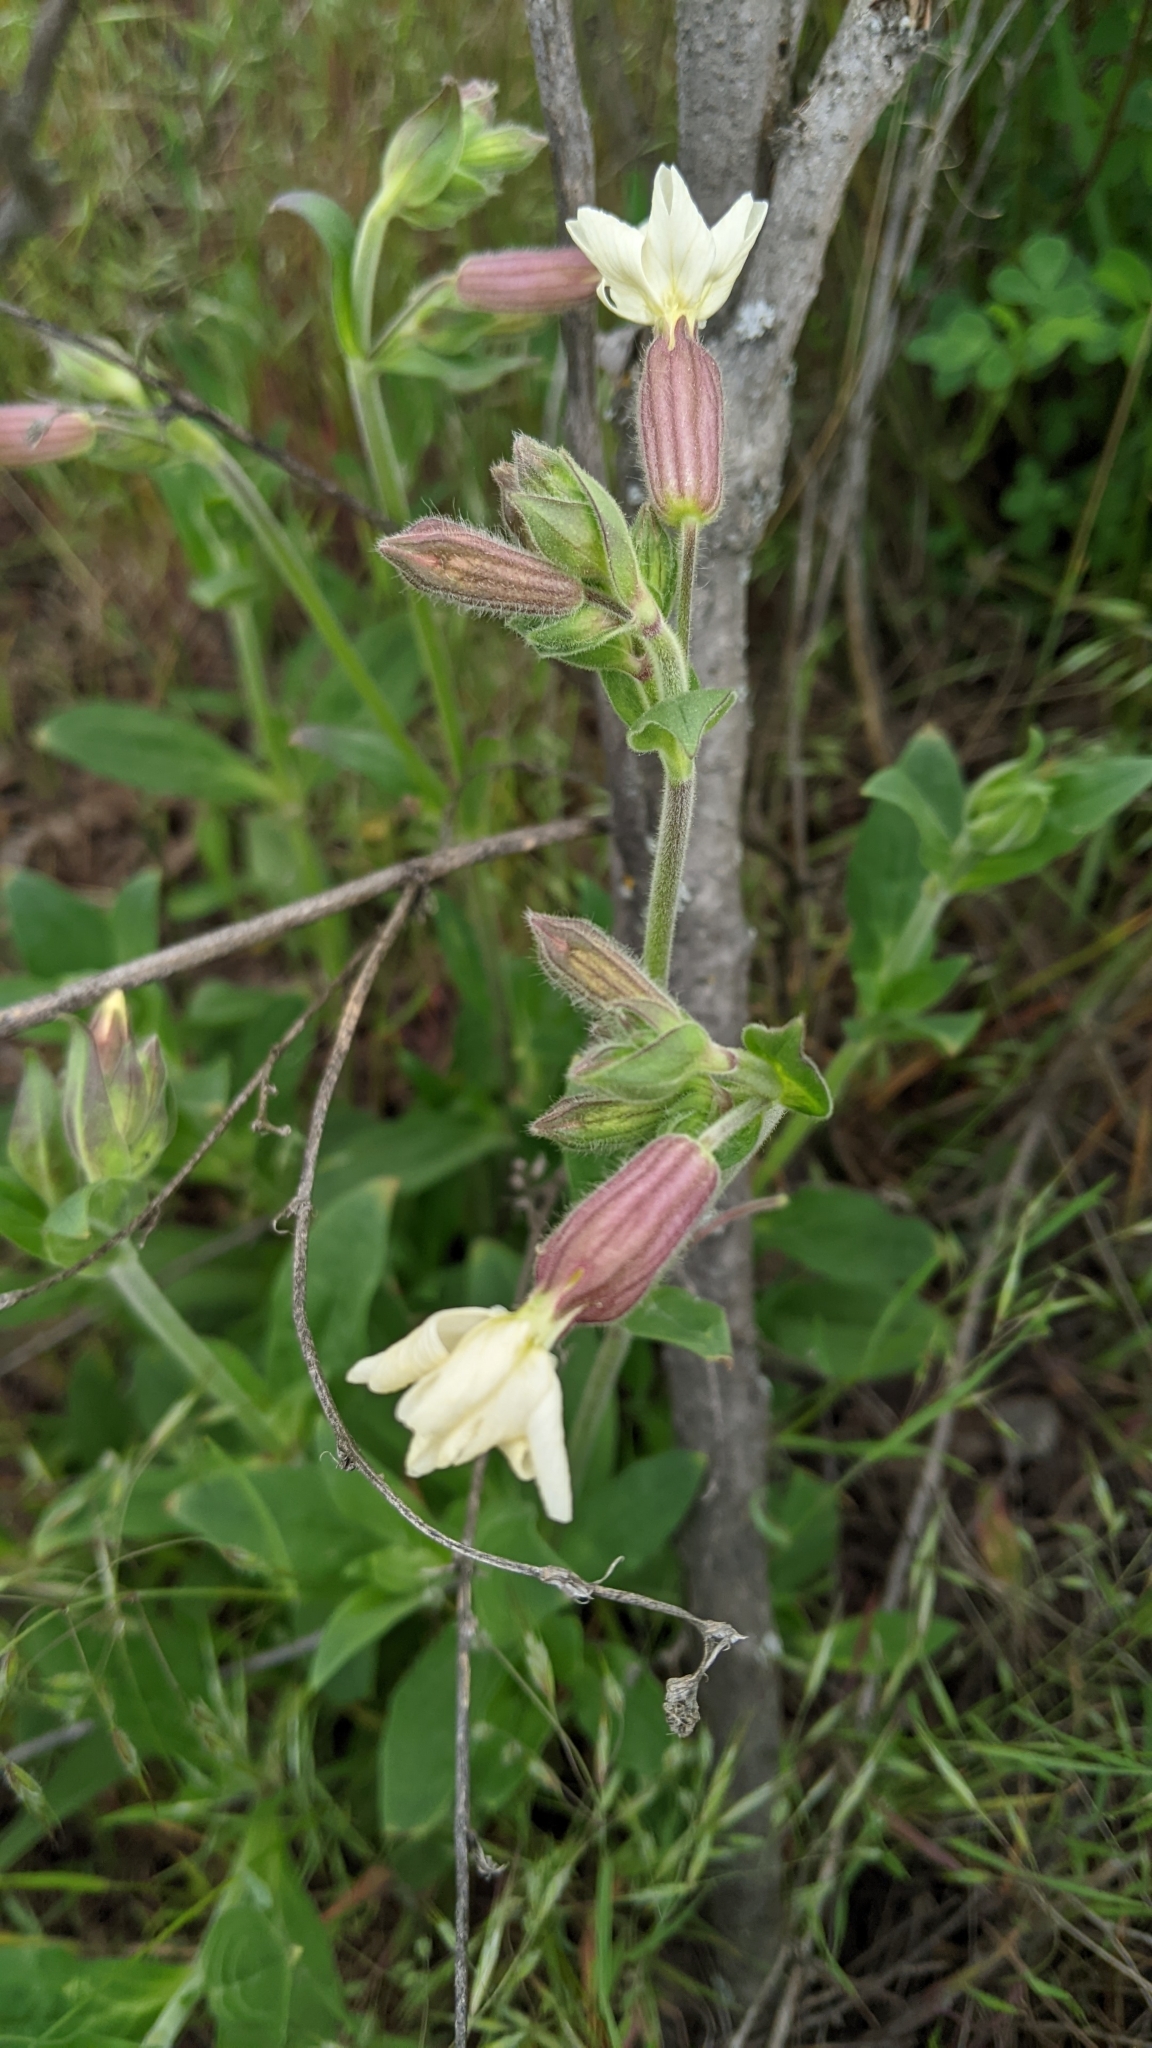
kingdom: Plantae
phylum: Tracheophyta
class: Magnoliopsida
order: Caryophyllales
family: Caryophyllaceae
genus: Silene
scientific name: Silene latifolia
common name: White campion
